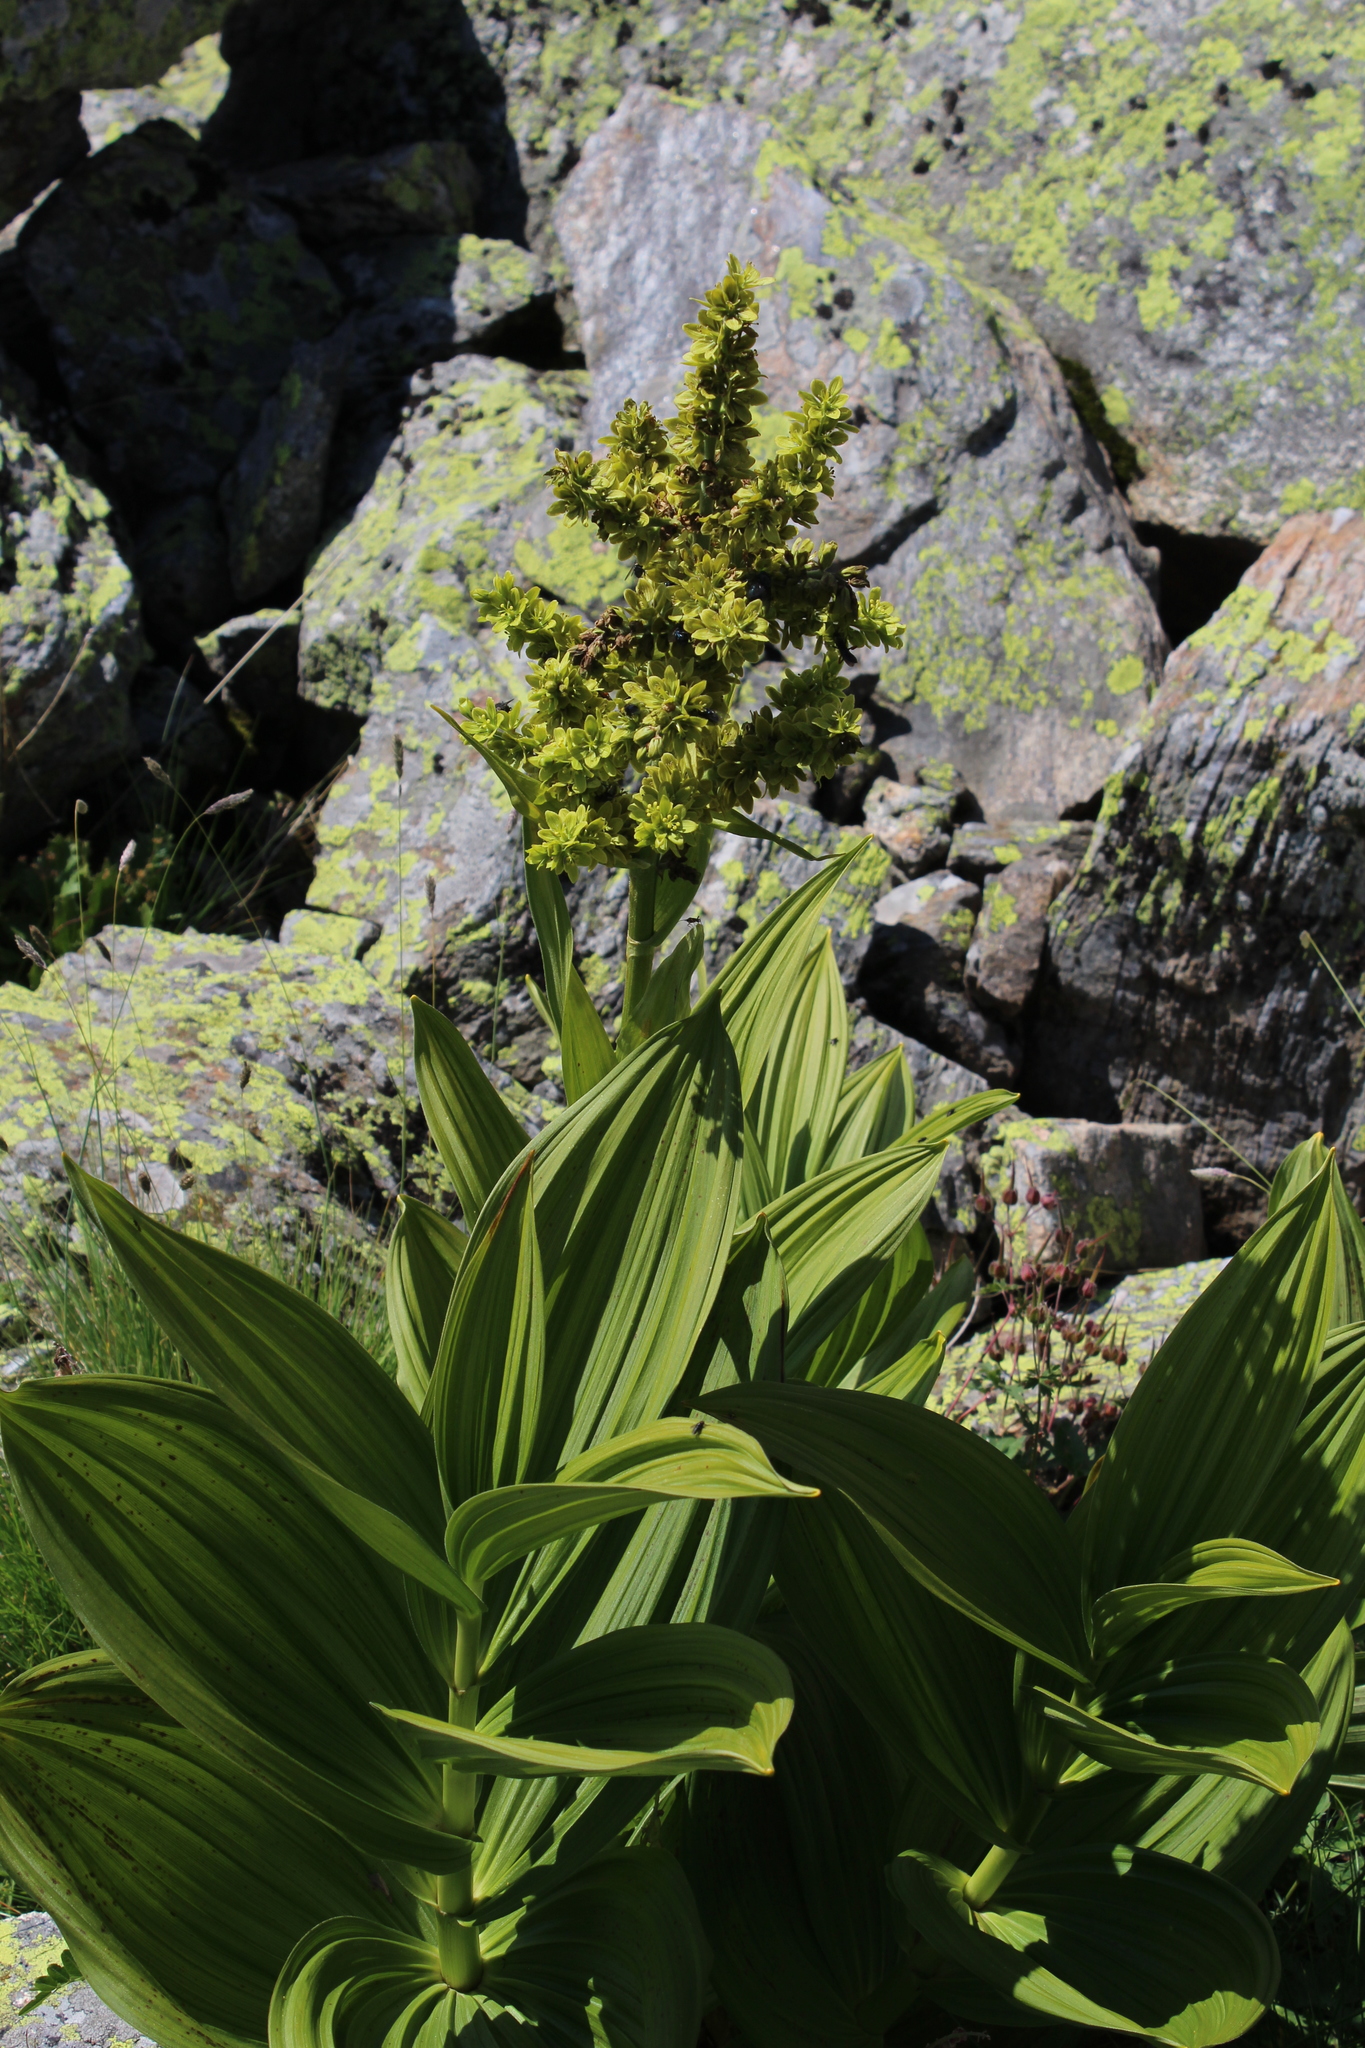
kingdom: Plantae
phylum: Tracheophyta
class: Liliopsida
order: Liliales
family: Melanthiaceae
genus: Veratrum
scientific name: Veratrum lobelianum
